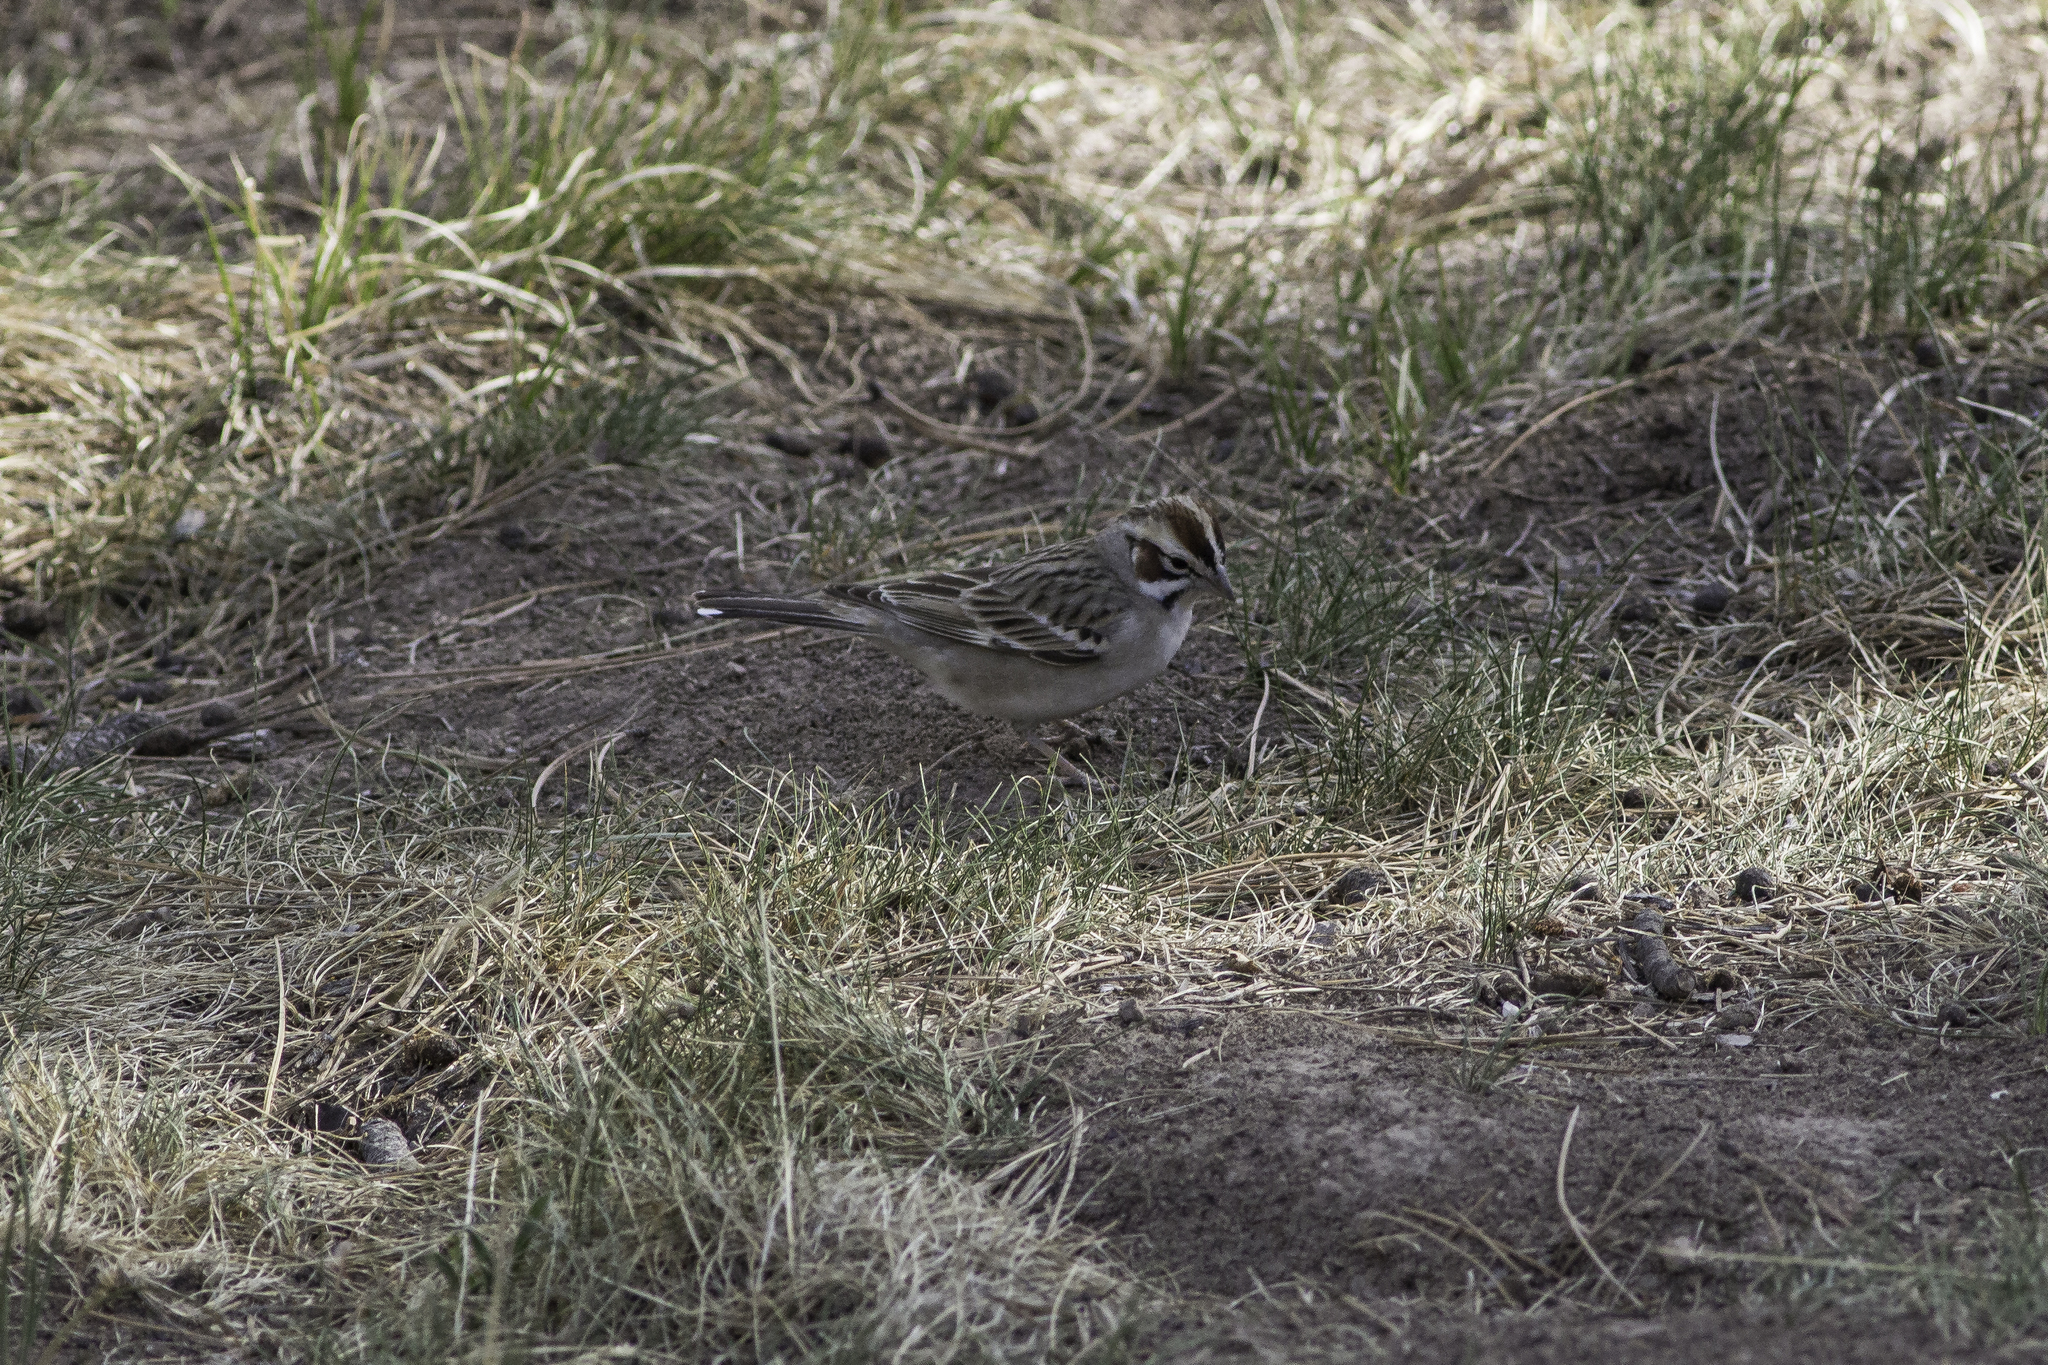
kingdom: Animalia
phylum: Chordata
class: Aves
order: Passeriformes
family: Passerellidae
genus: Chondestes
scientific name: Chondestes grammacus
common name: Lark sparrow
